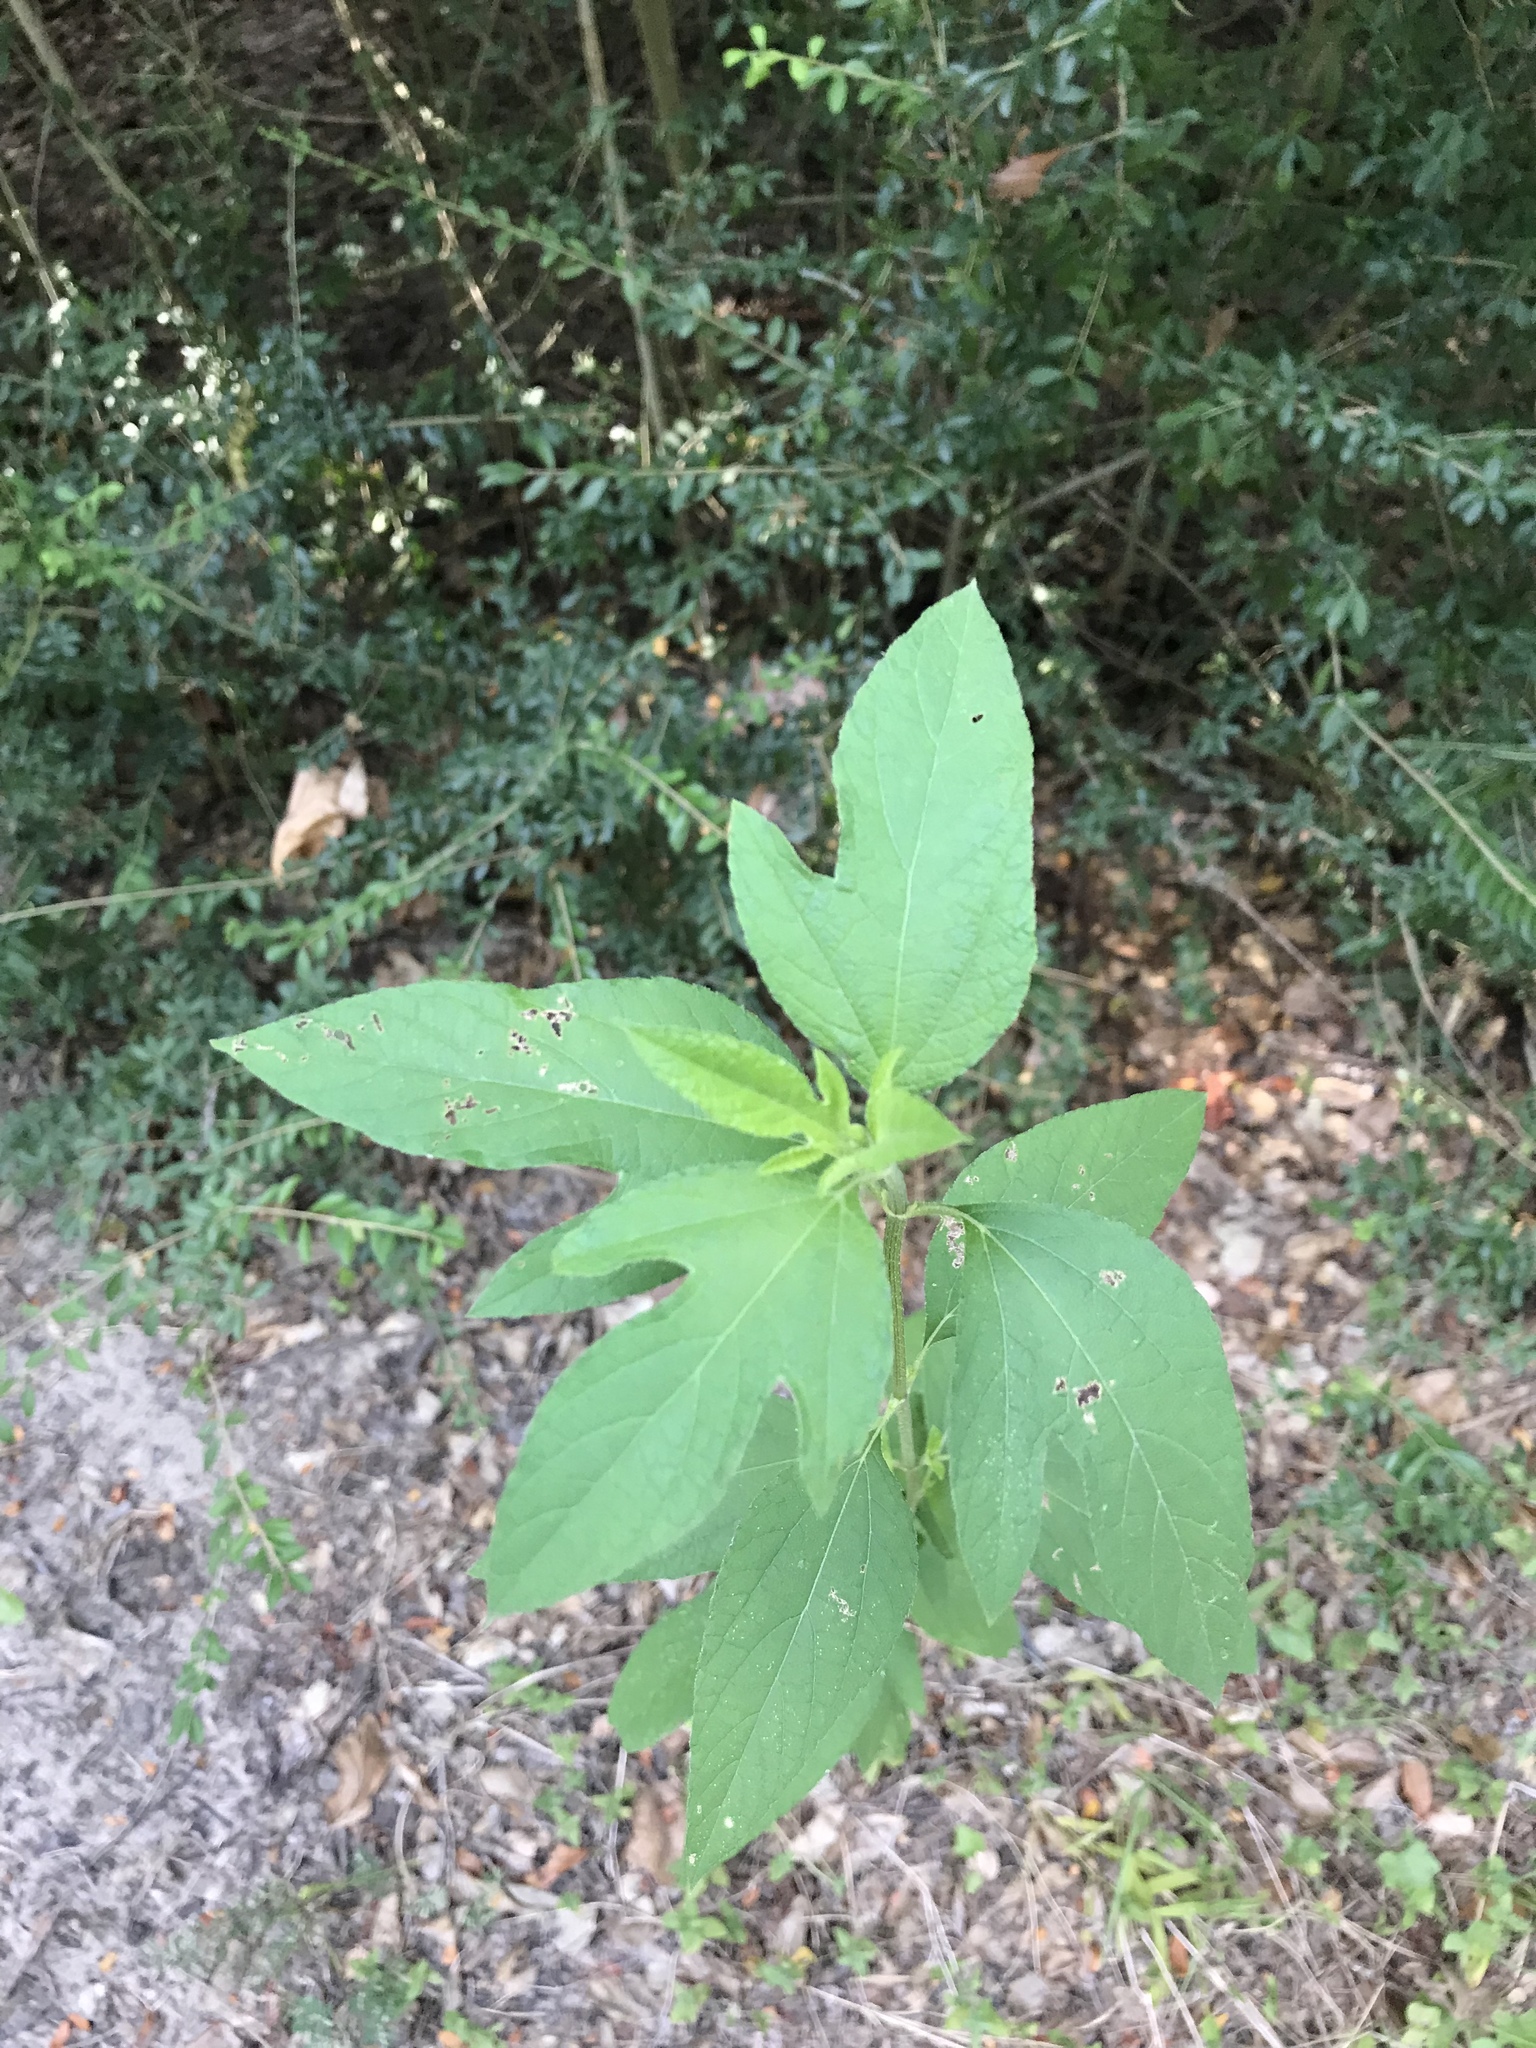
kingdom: Plantae
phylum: Tracheophyta
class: Magnoliopsida
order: Asterales
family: Asteraceae
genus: Ambrosia
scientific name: Ambrosia trifida
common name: Giant ragweed
